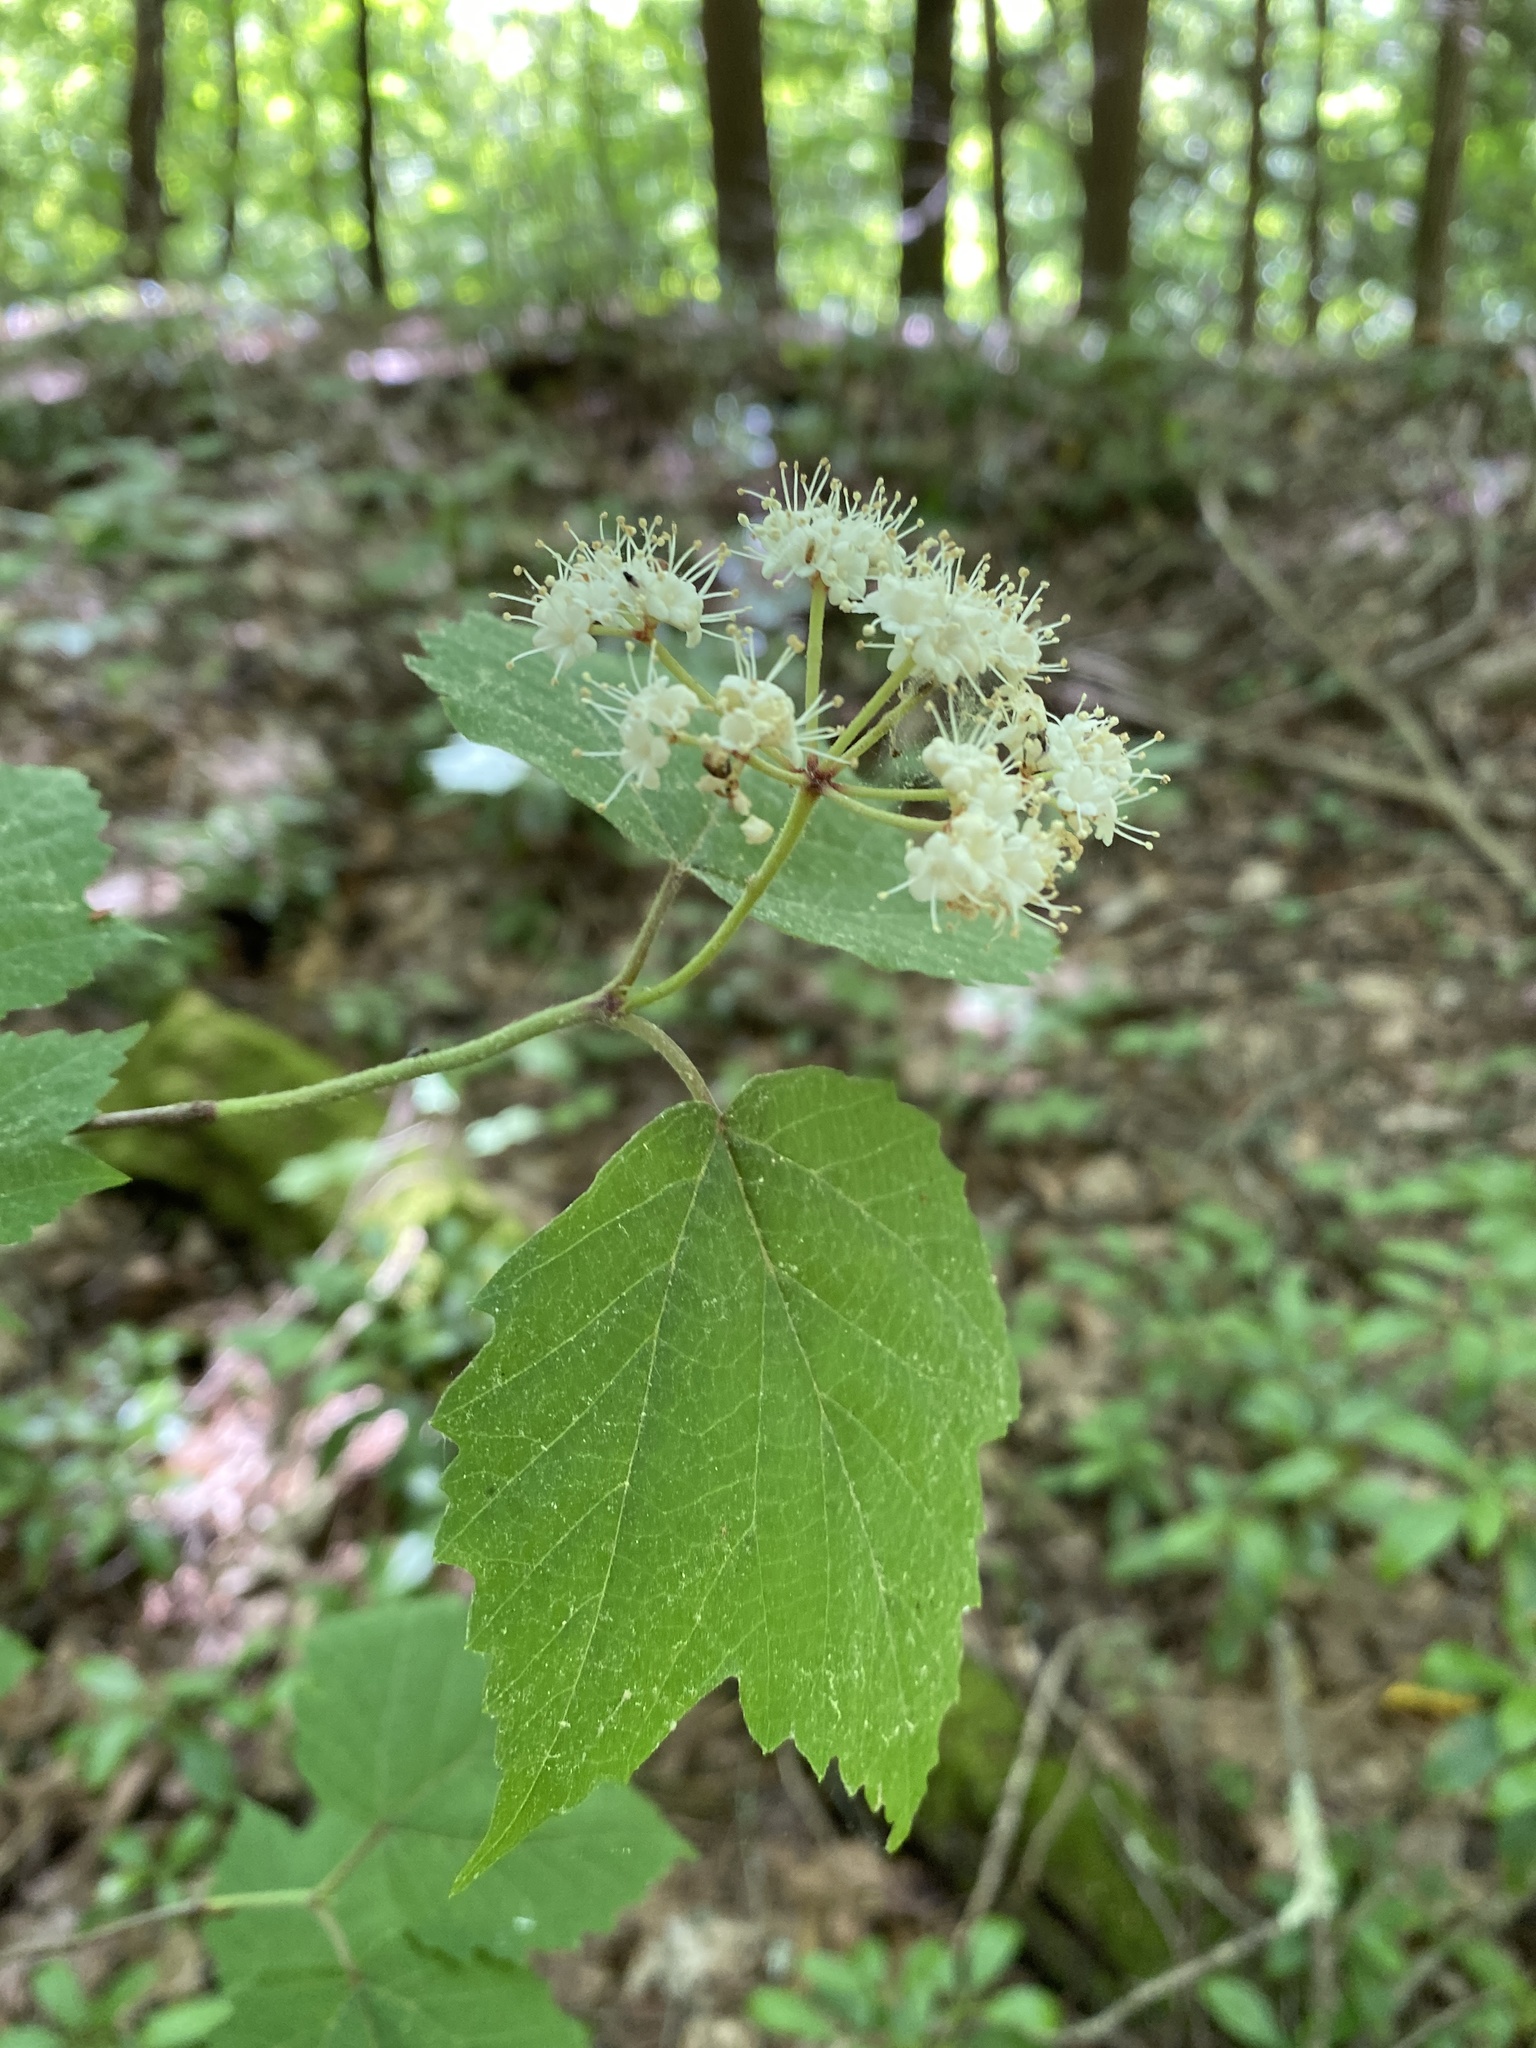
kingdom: Plantae
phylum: Tracheophyta
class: Magnoliopsida
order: Dipsacales
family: Viburnaceae
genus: Viburnum
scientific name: Viburnum acerifolium
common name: Dockmackie
